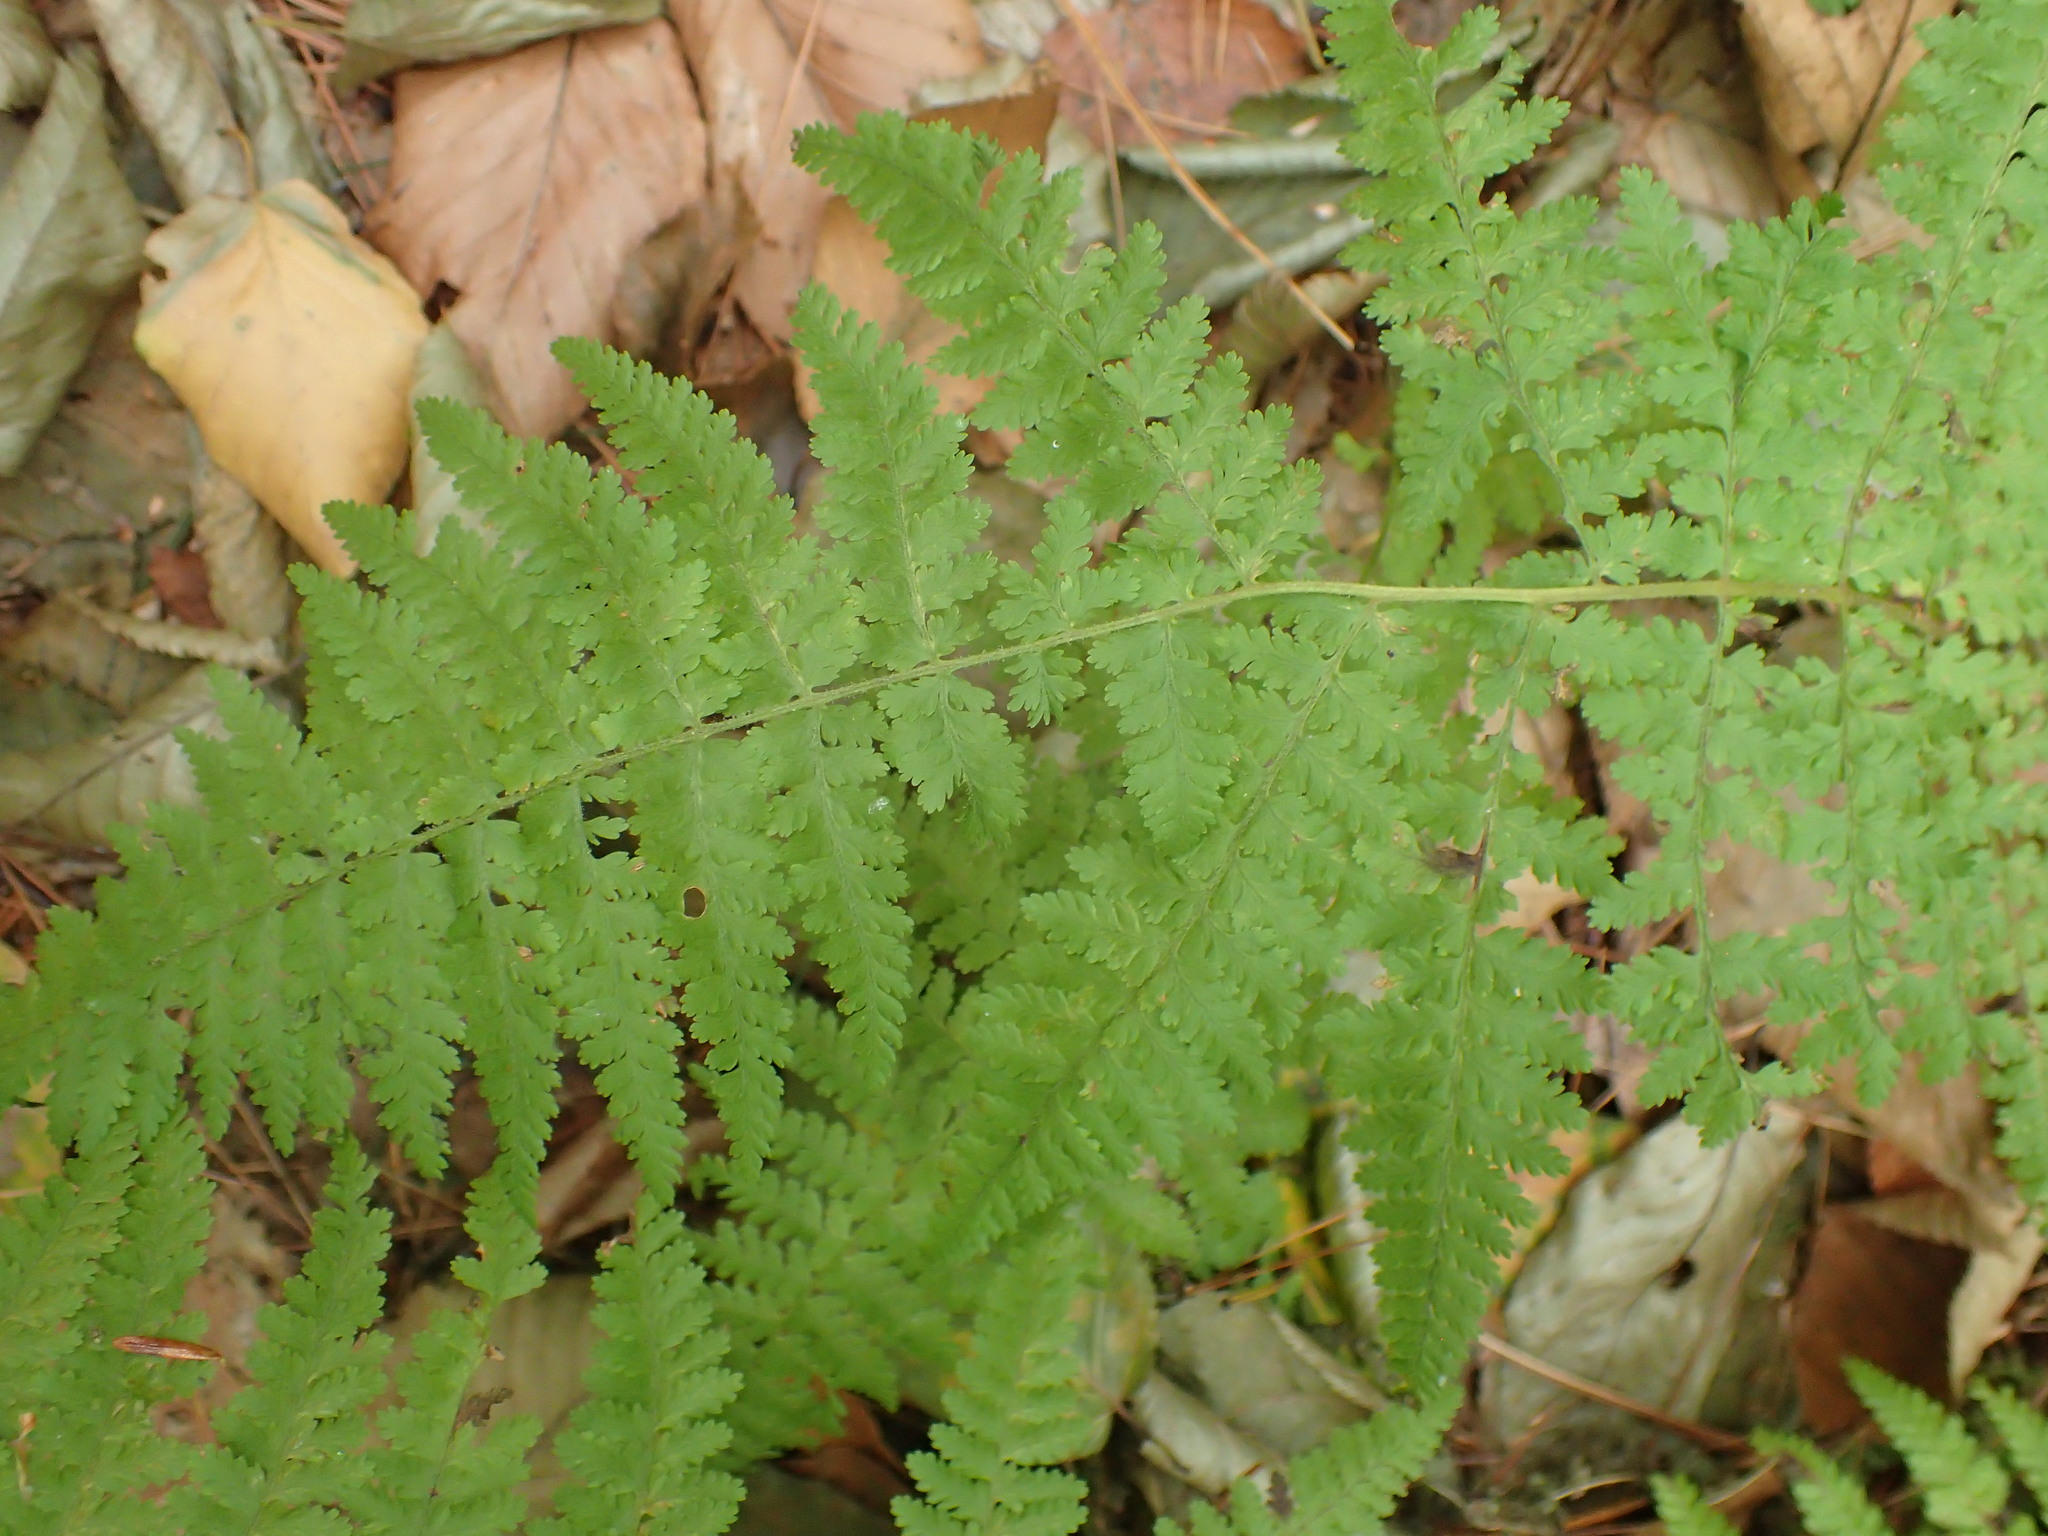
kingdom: Plantae
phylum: Tracheophyta
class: Polypodiopsida
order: Polypodiales
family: Dennstaedtiaceae
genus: Sitobolium
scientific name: Sitobolium punctilobum
